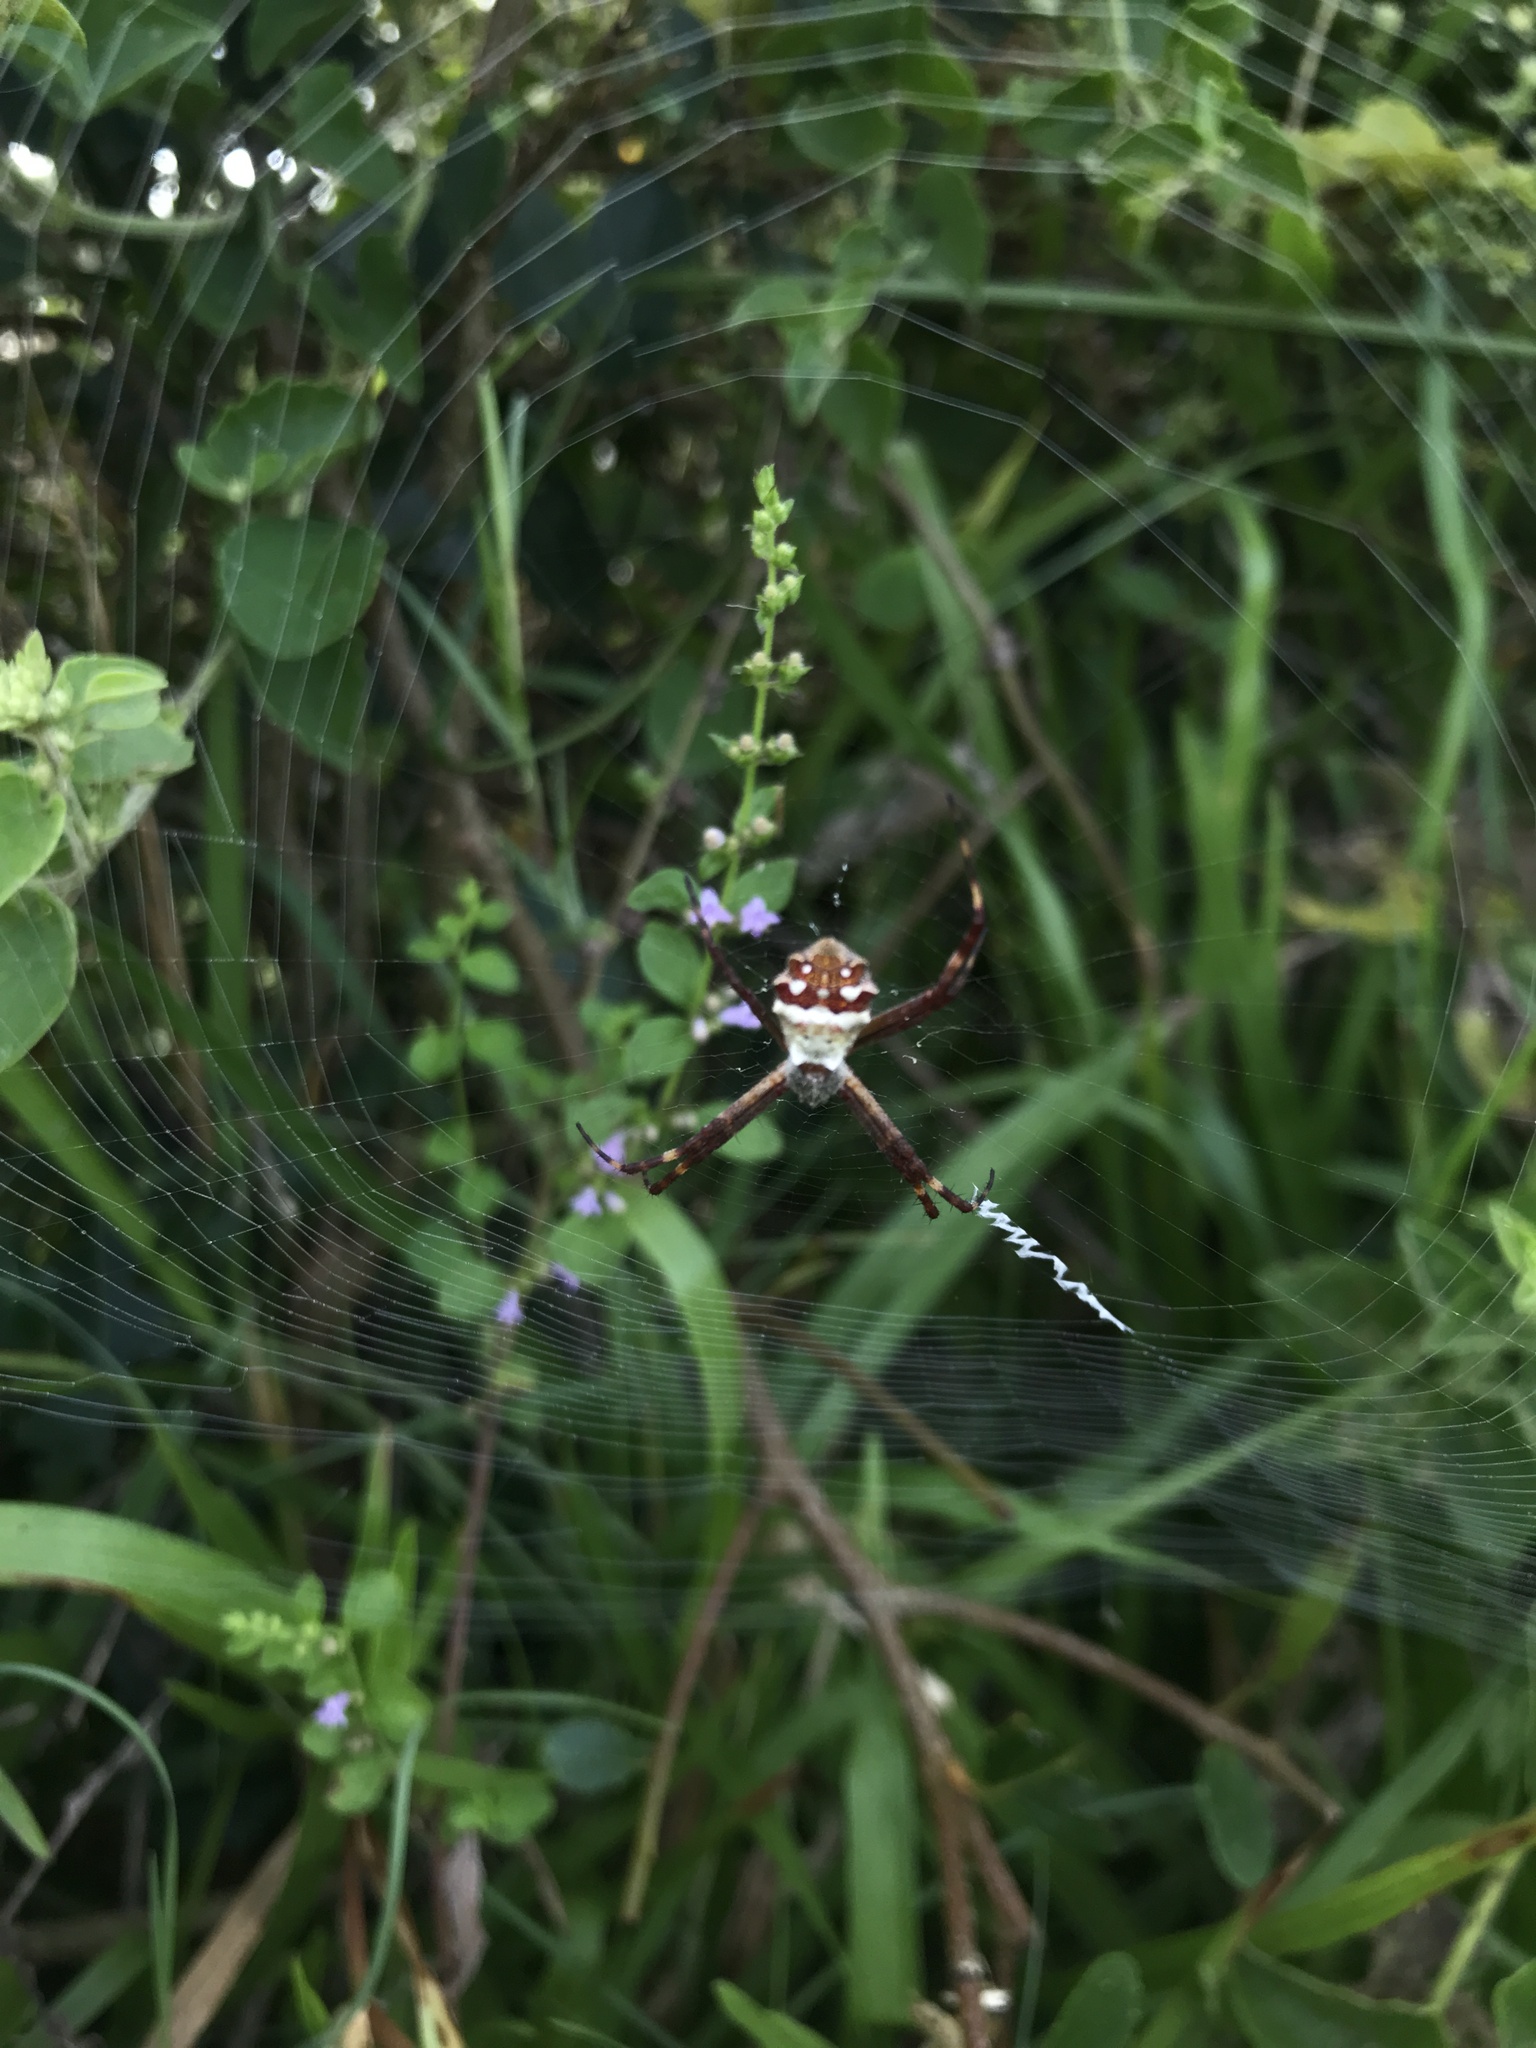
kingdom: Animalia
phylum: Arthropoda
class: Arachnida
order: Araneae
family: Araneidae
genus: Argiope
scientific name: Argiope argentata
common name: Orb weavers
